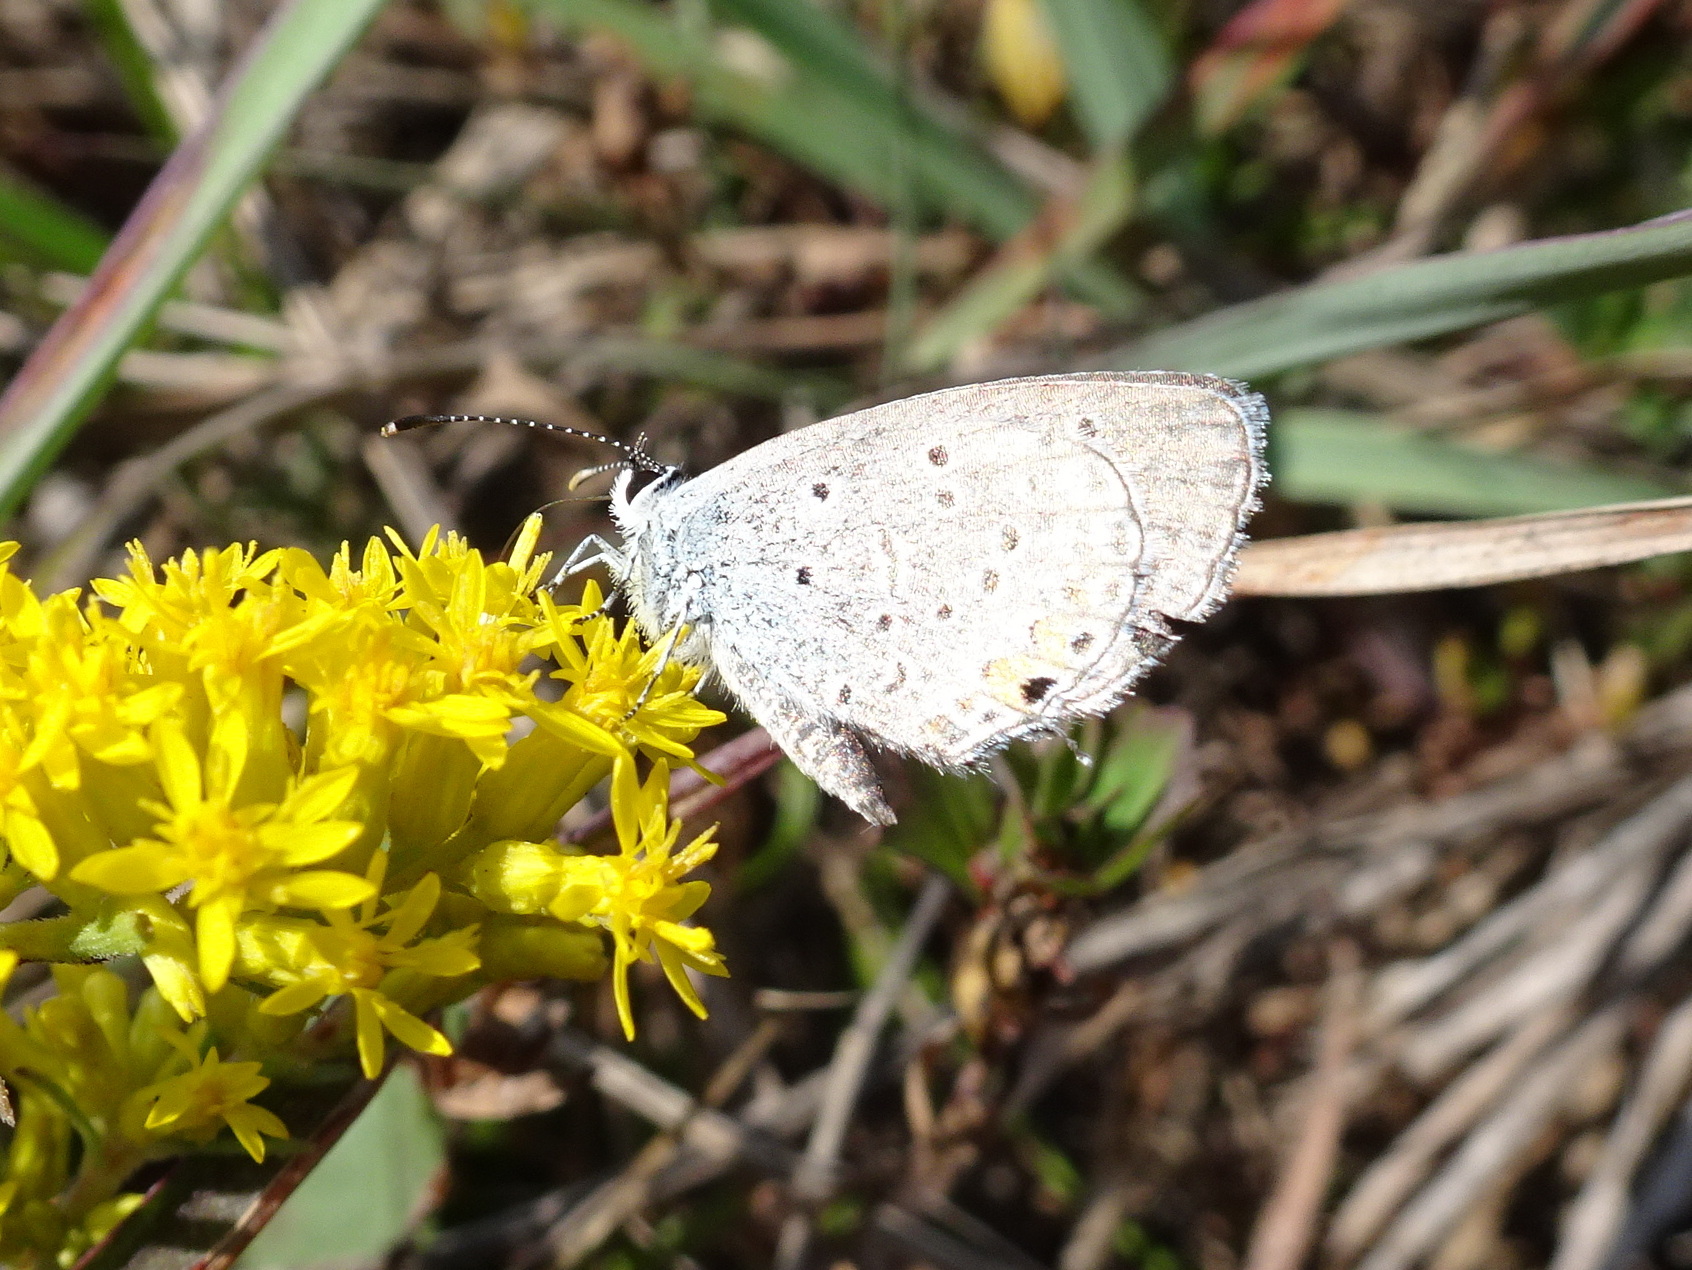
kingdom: Animalia
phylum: Arthropoda
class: Insecta
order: Lepidoptera
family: Lycaenidae
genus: Elkalyce
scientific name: Elkalyce comyntas
